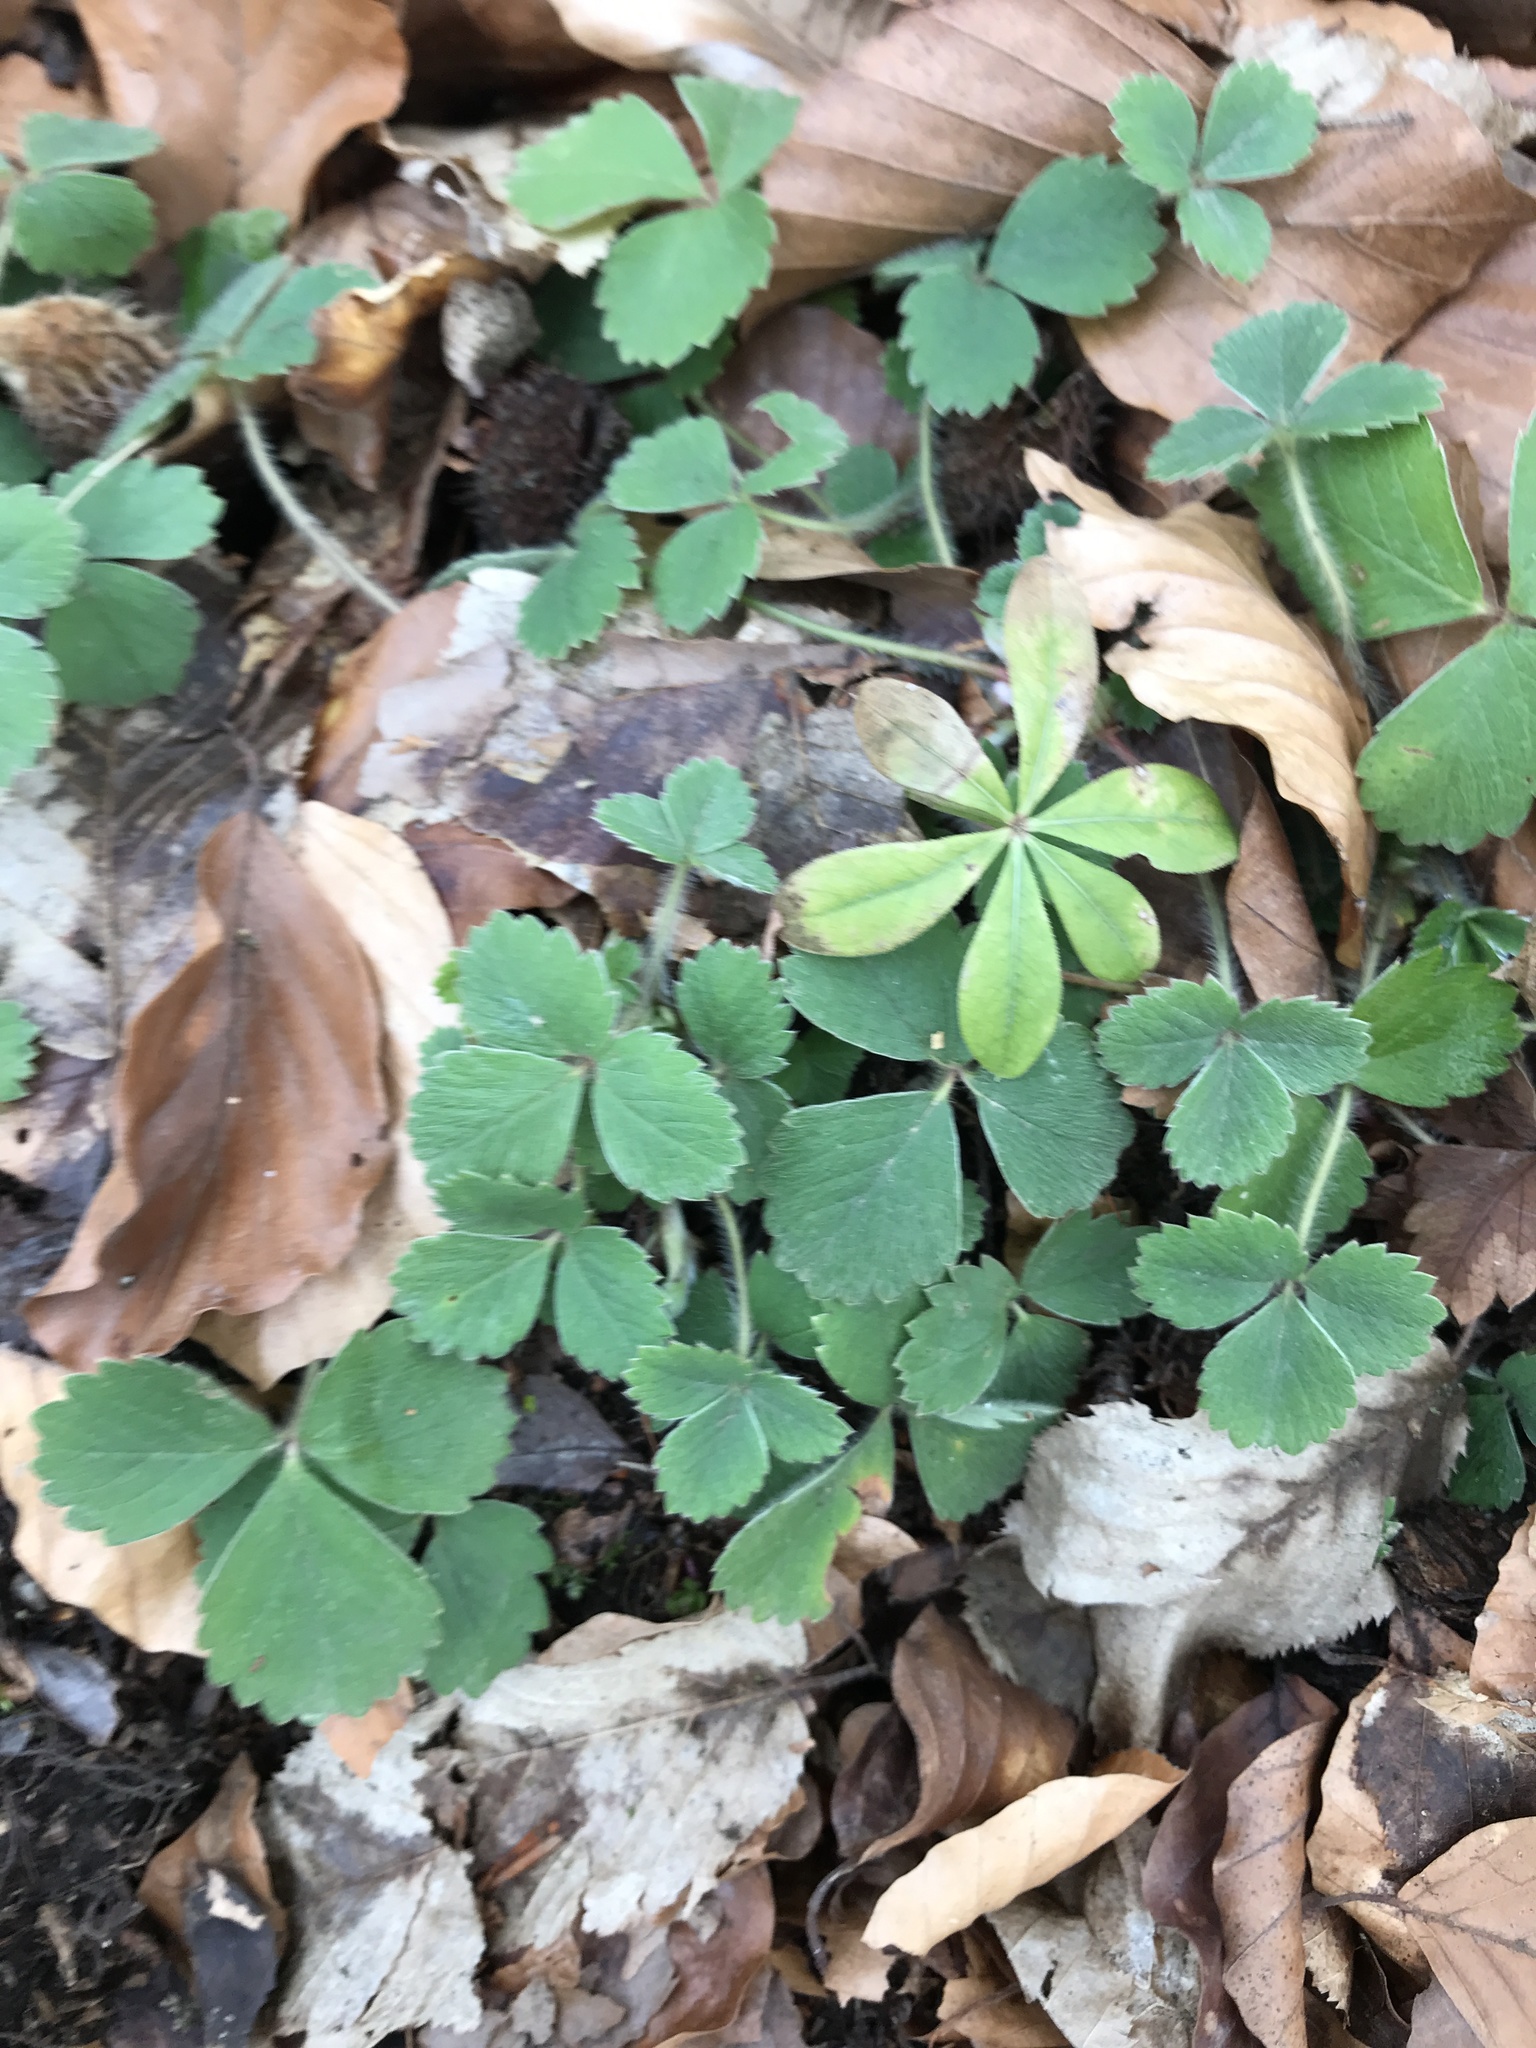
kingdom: Plantae
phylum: Tracheophyta
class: Magnoliopsida
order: Rosales
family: Rosaceae
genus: Potentilla
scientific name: Potentilla sterilis
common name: Barren strawberry
